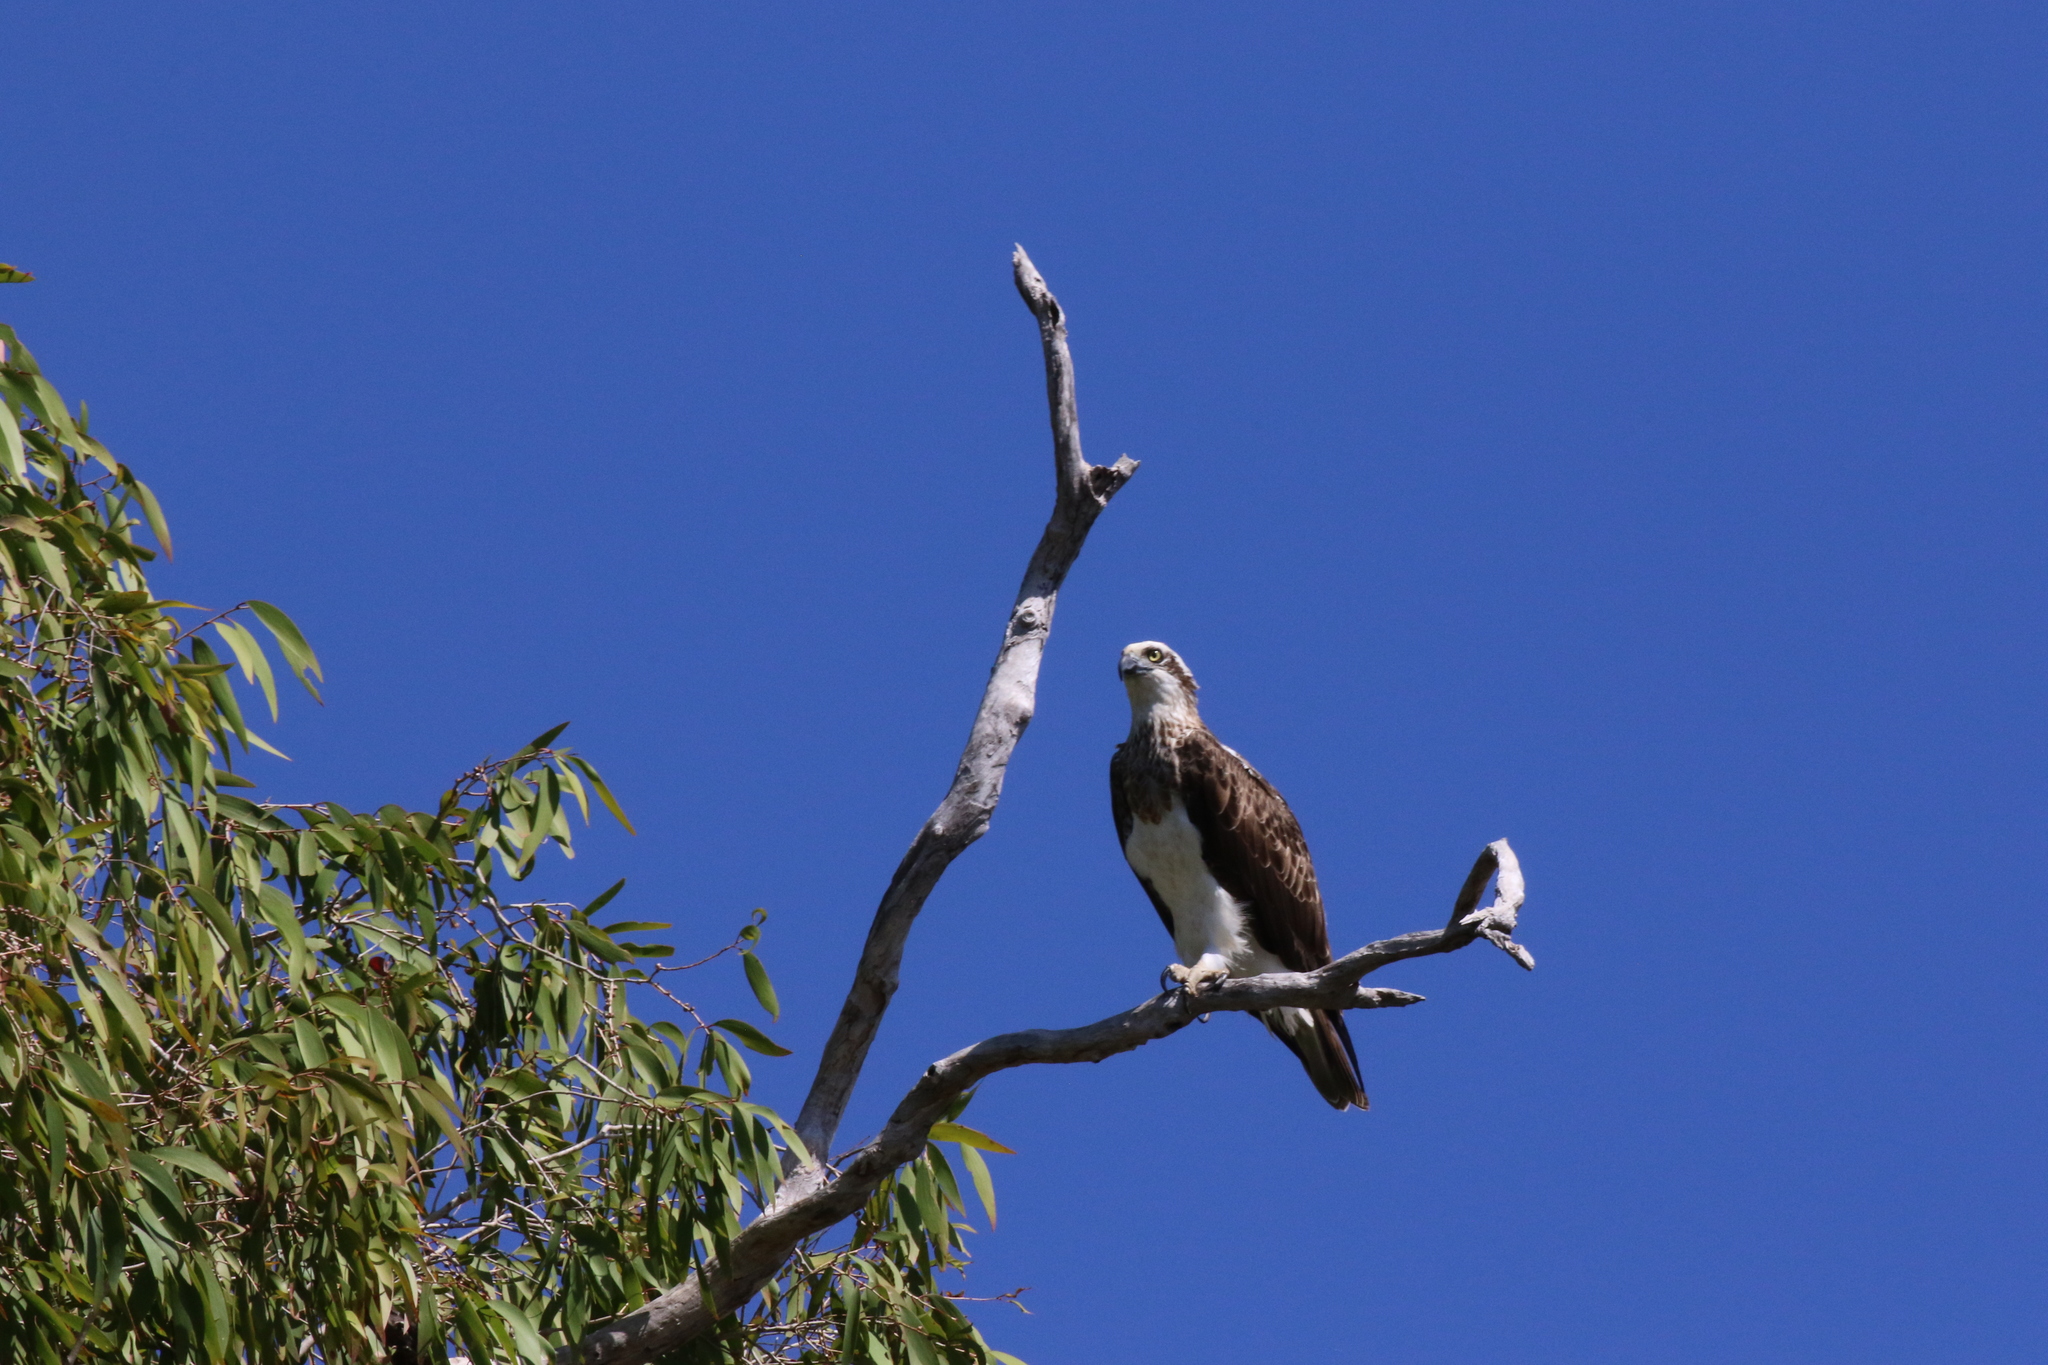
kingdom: Animalia
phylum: Chordata
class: Aves
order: Accipitriformes
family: Pandionidae
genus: Pandion
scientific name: Pandion cristatus
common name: Eastern osprey
